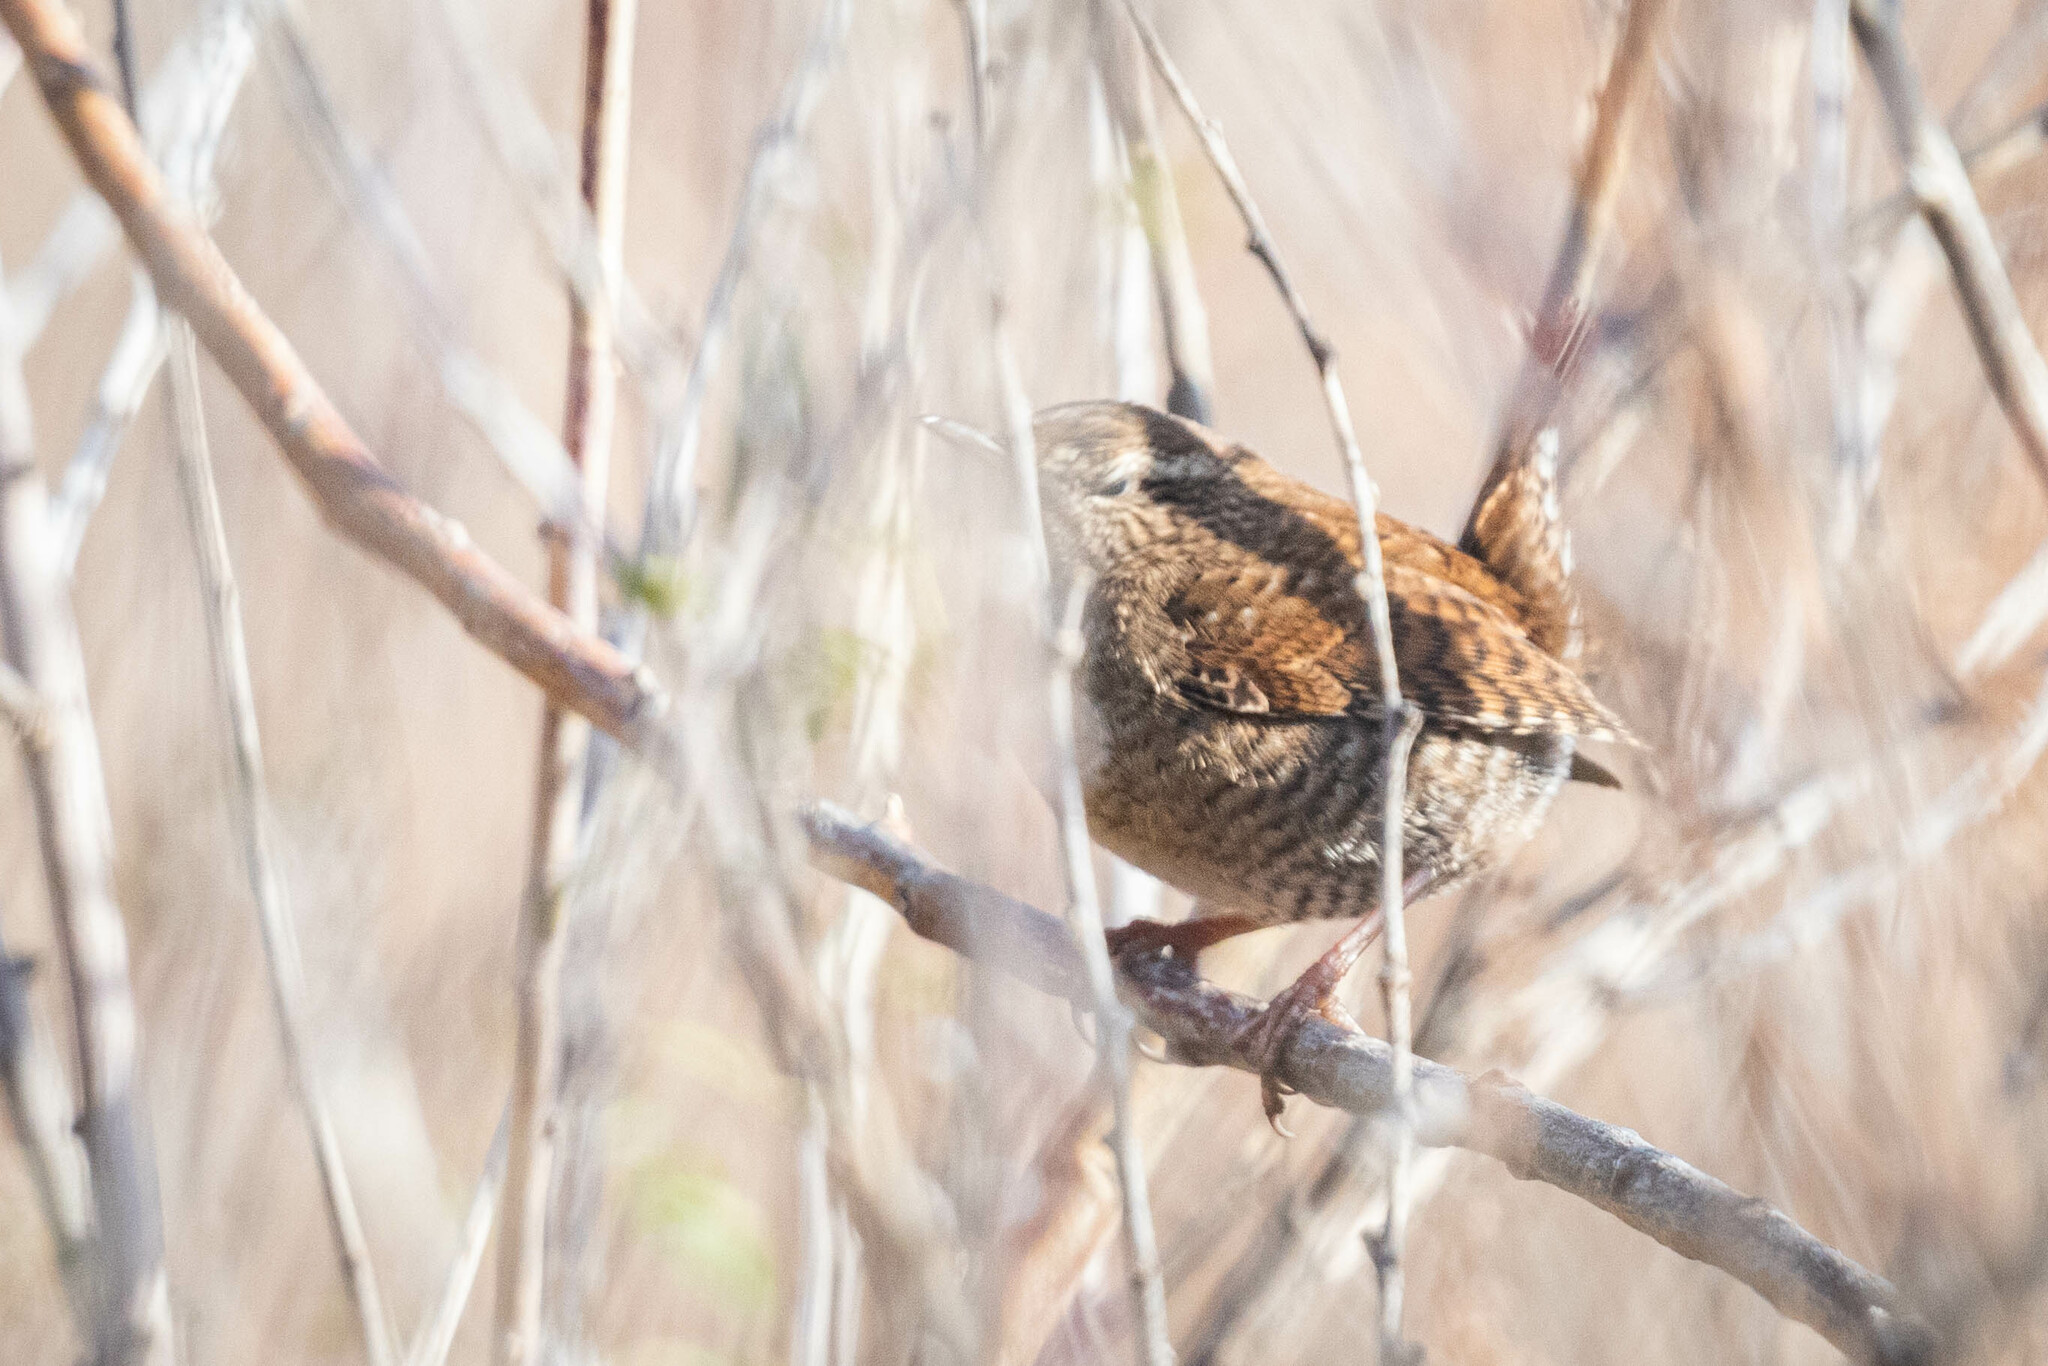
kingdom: Animalia
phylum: Chordata
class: Aves
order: Passeriformes
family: Troglodytidae
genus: Troglodytes
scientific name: Troglodytes troglodytes
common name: Eurasian wren
